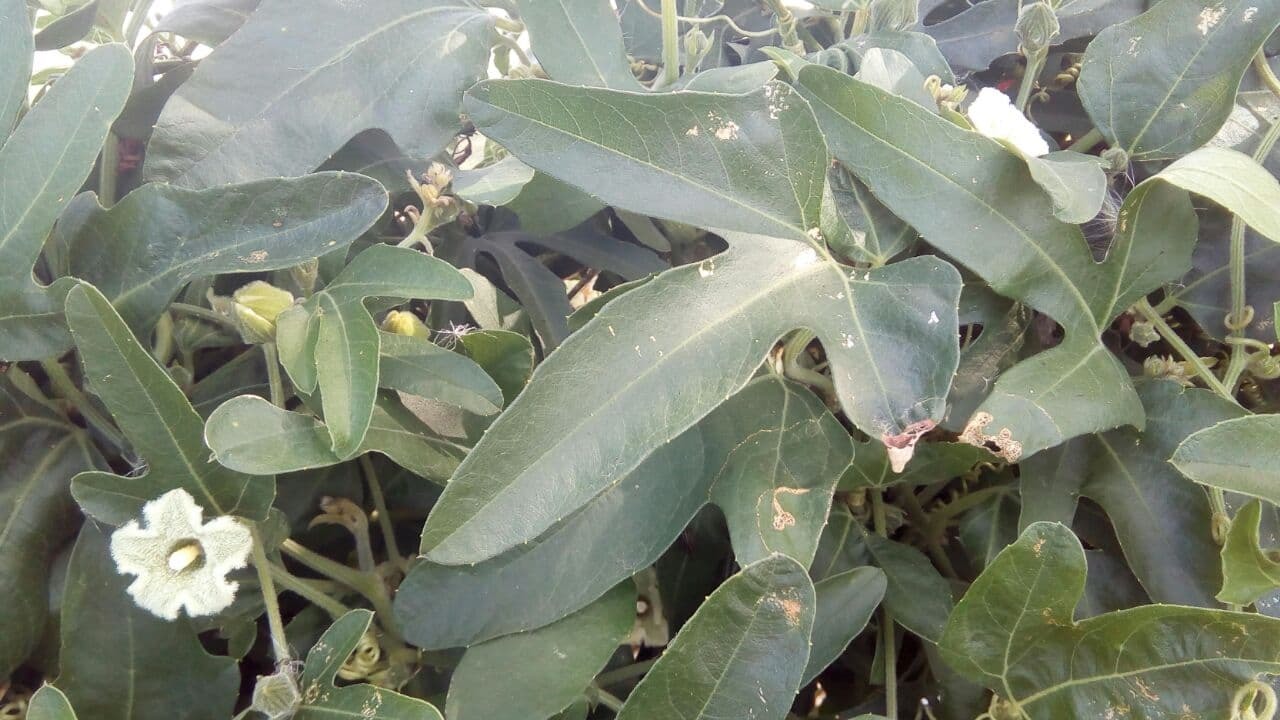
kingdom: Plantae
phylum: Tracheophyta
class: Magnoliopsida
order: Cucurbitales
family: Cucurbitaceae
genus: Cayaponia
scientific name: Cayaponia podantha
